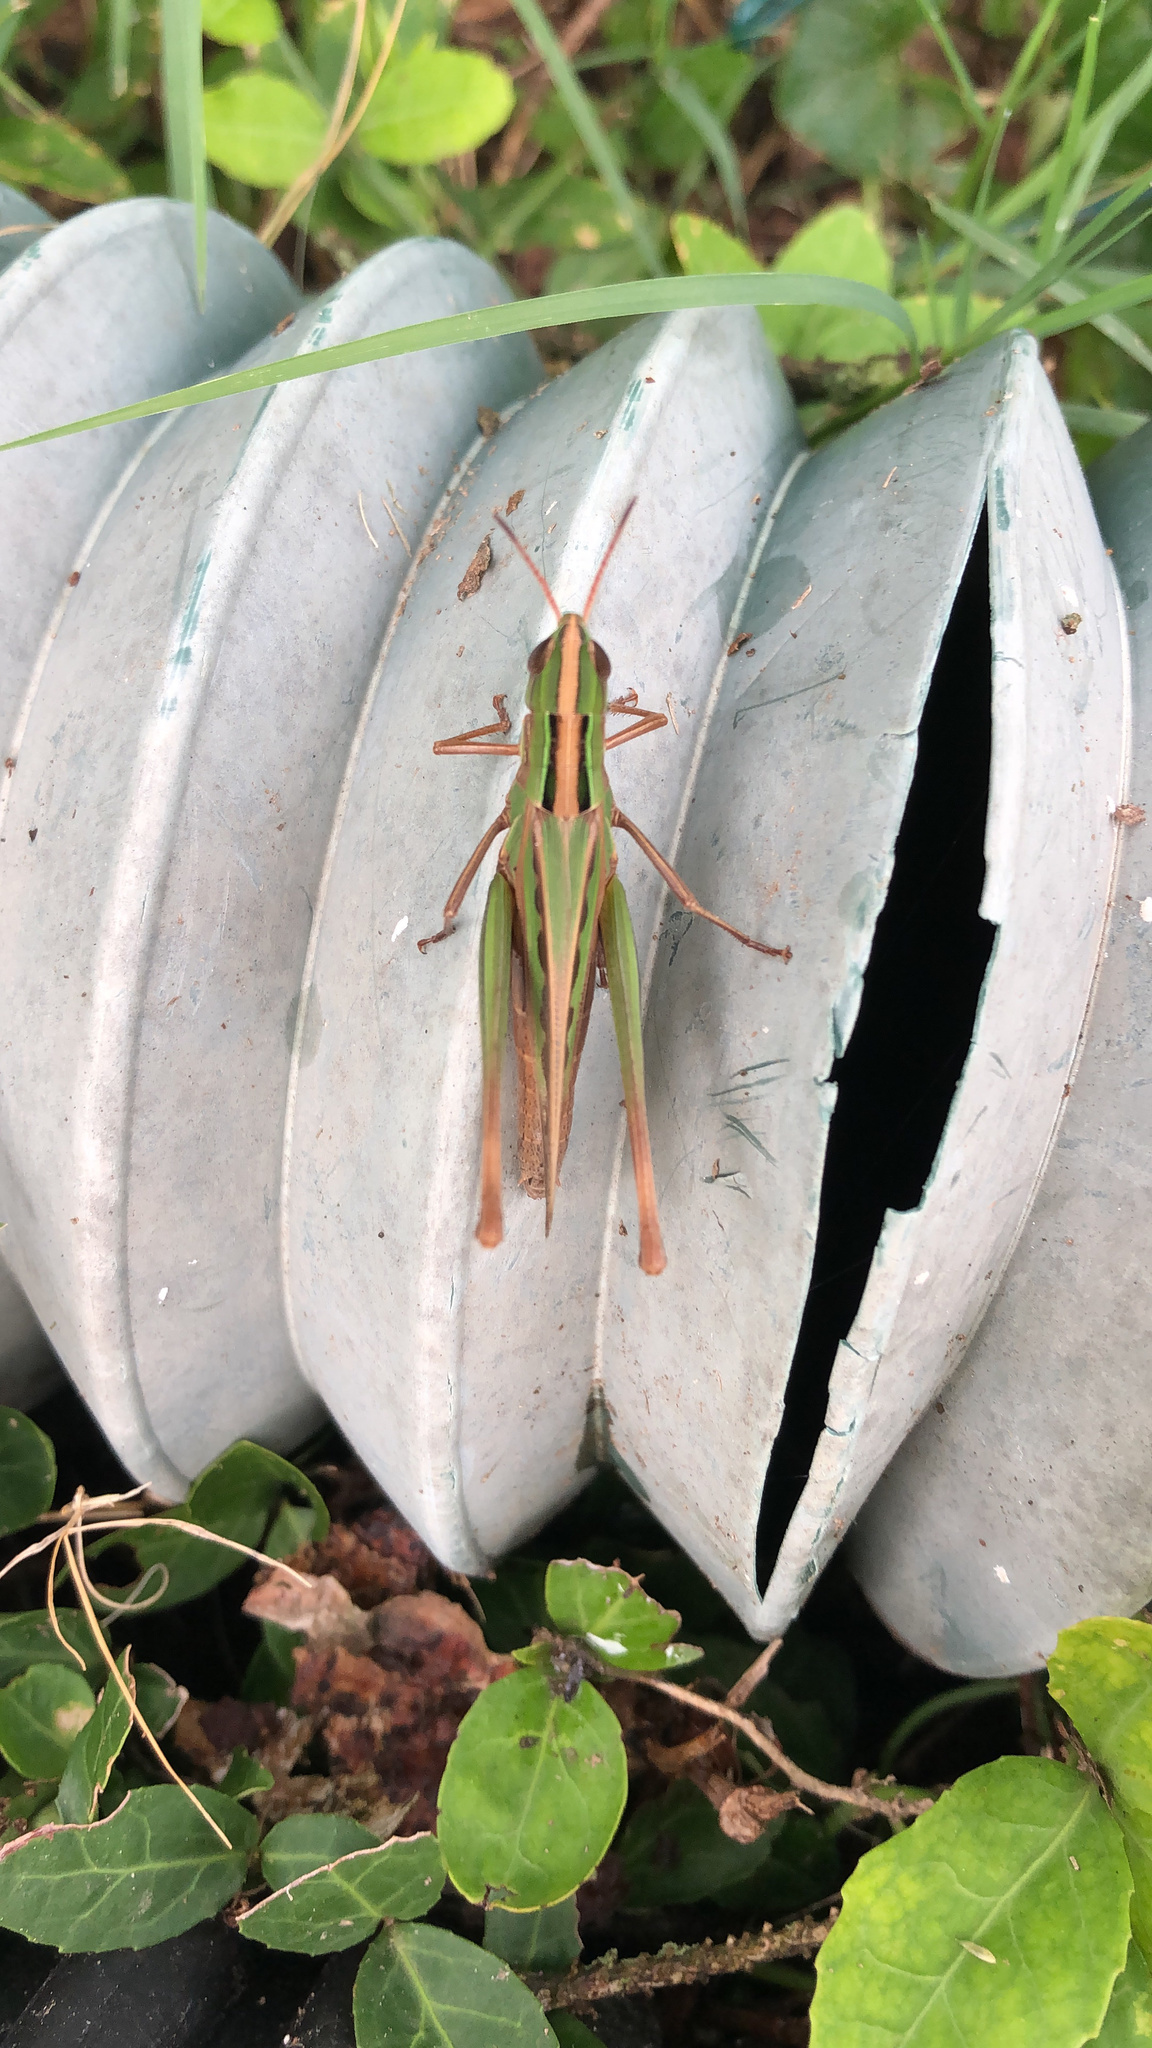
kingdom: Animalia
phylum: Arthropoda
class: Insecta
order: Orthoptera
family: Acrididae
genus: Syrbula
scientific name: Syrbula admirabilis
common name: Handsome grasshopper
